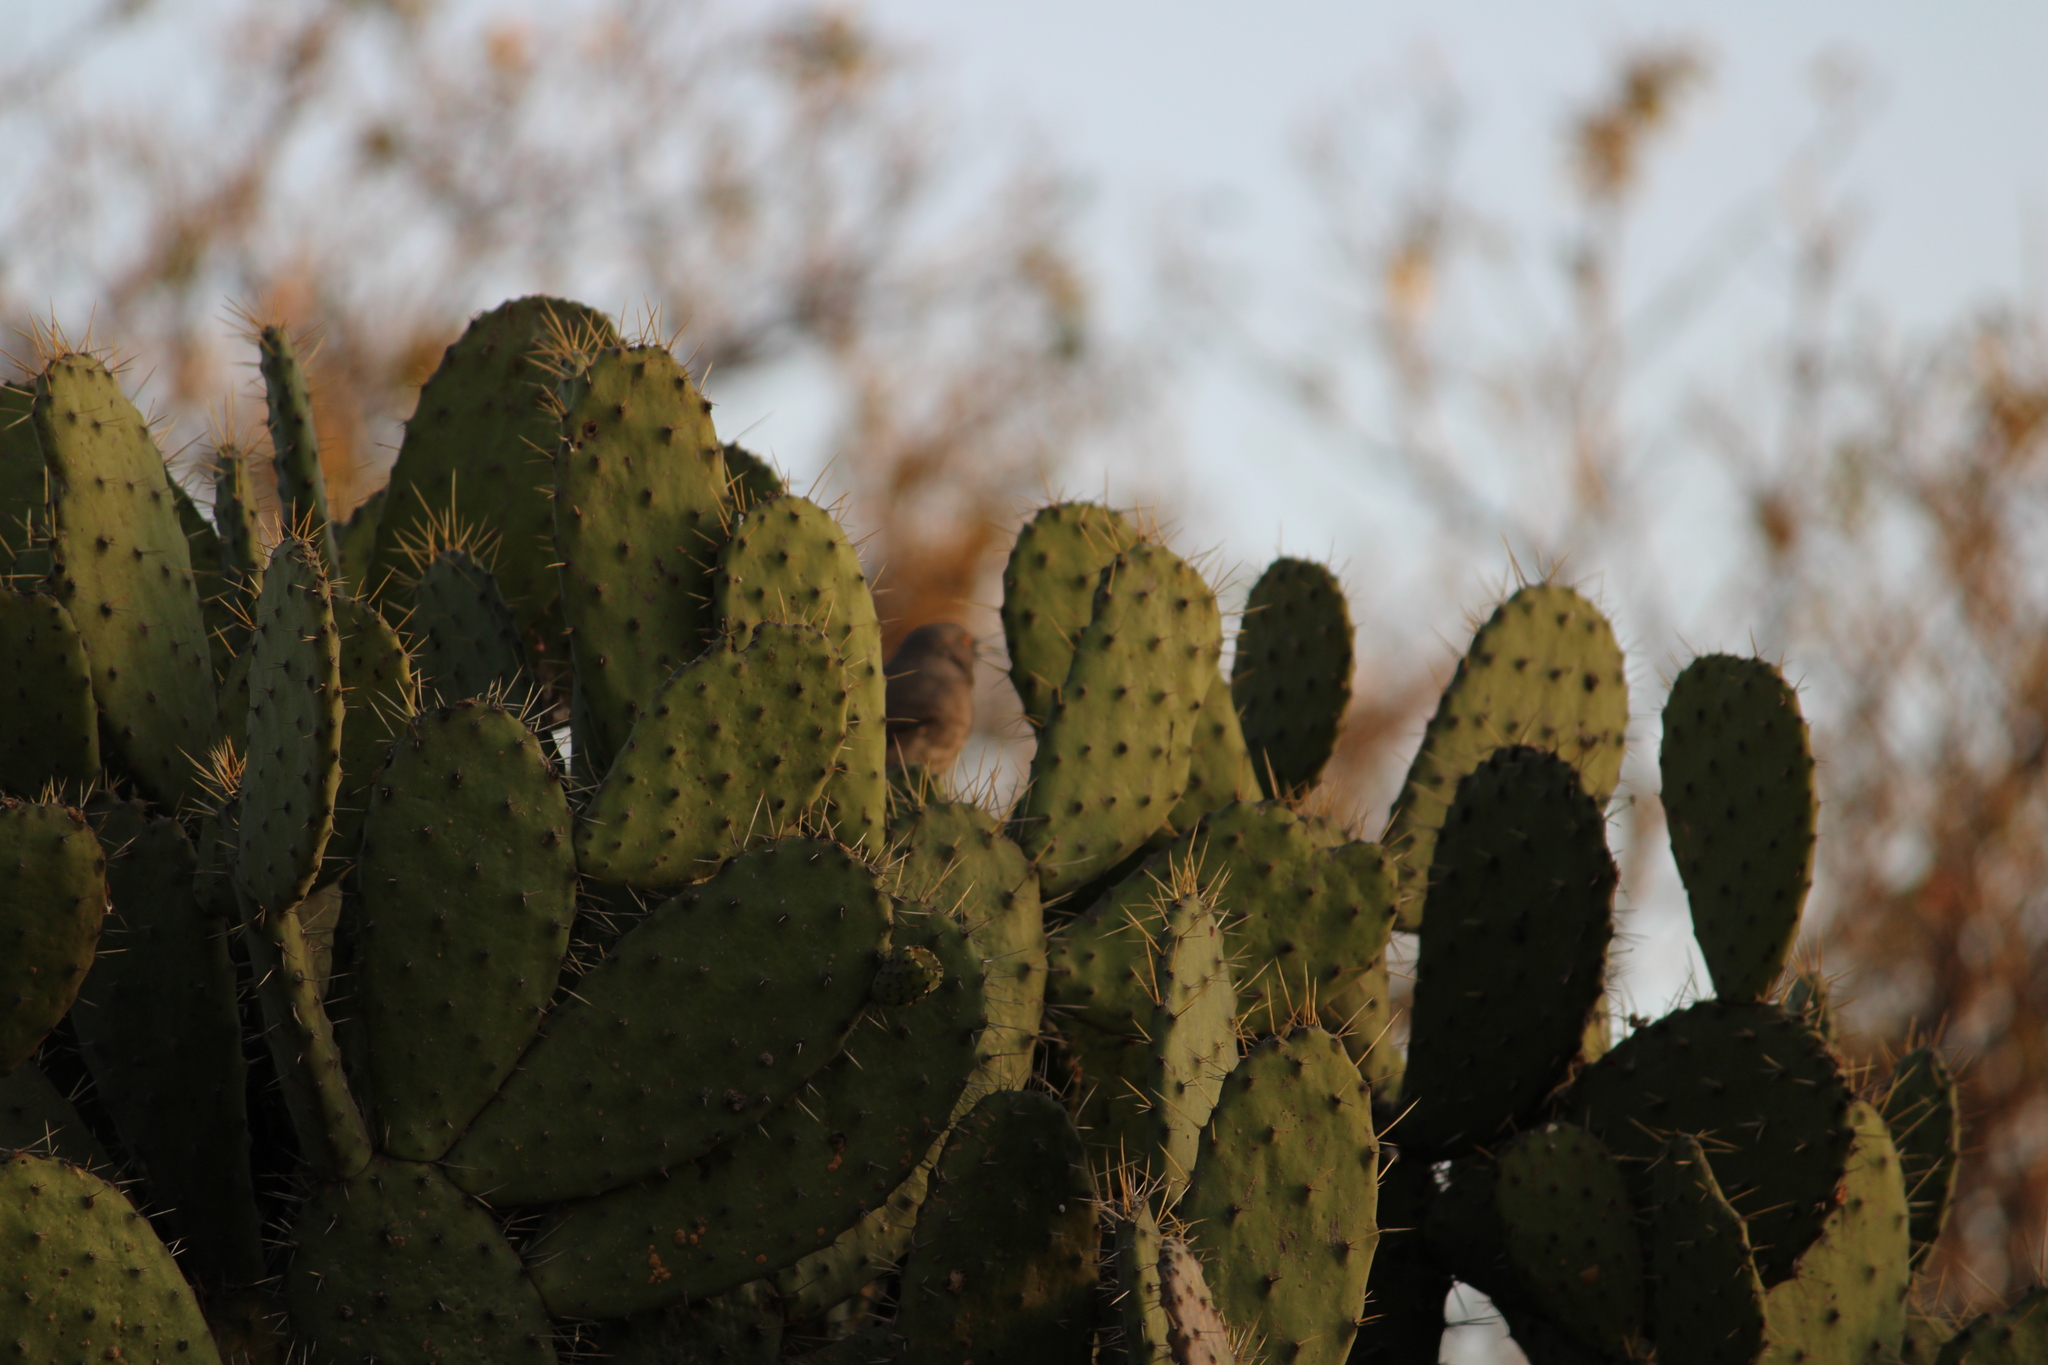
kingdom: Plantae
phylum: Tracheophyta
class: Magnoliopsida
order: Caryophyllales
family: Cactaceae
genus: Opuntia
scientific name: Opuntia tomentosa
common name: Woollyjoint pricklypear
